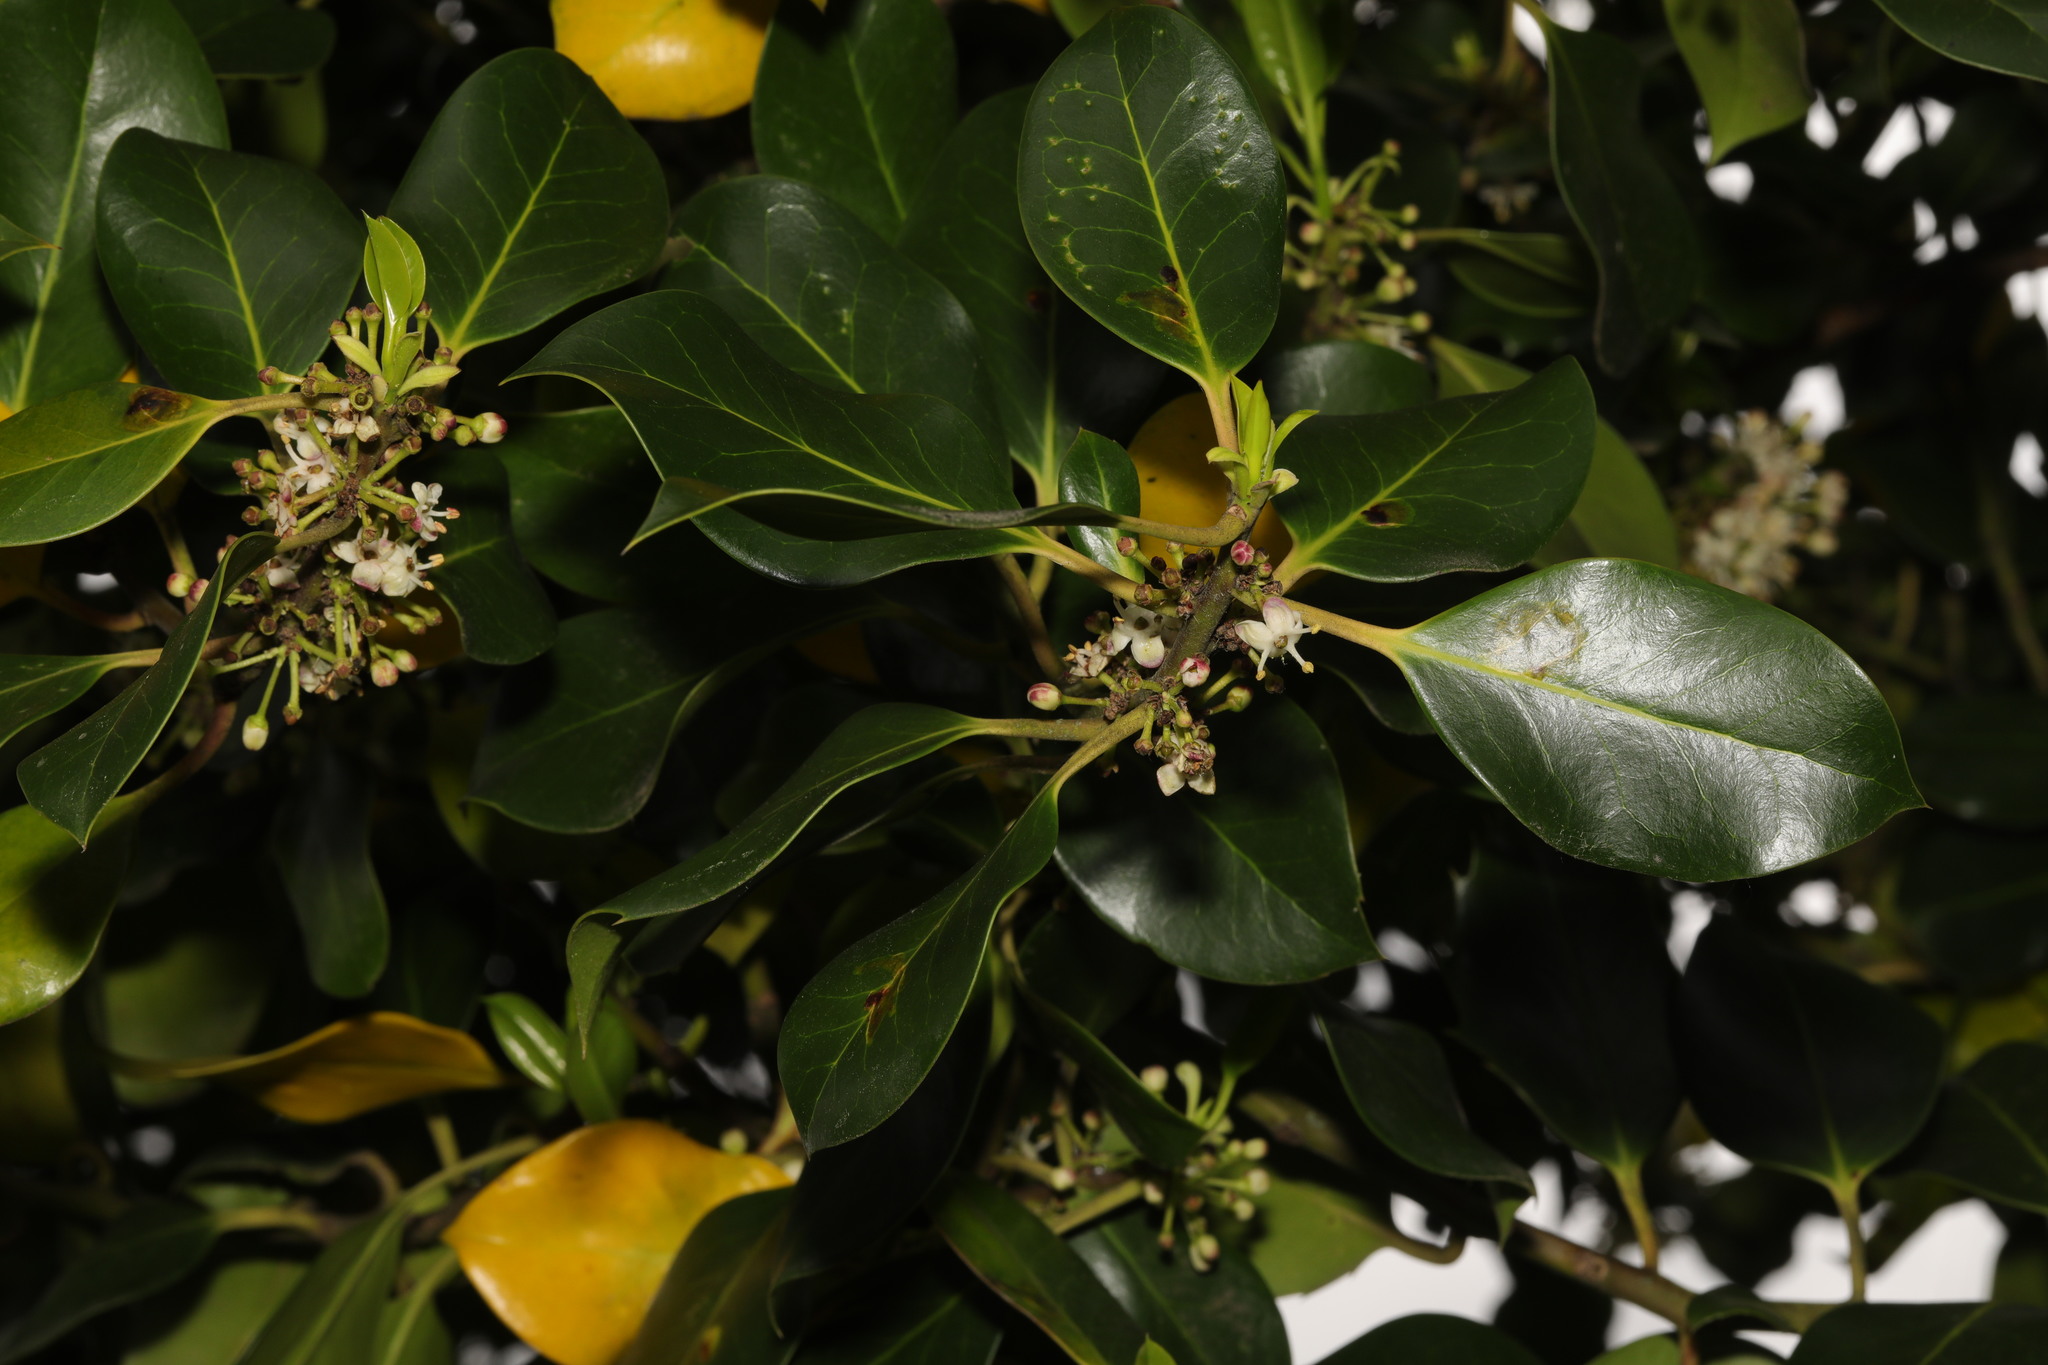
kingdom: Plantae
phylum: Tracheophyta
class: Magnoliopsida
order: Aquifoliales
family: Aquifoliaceae
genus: Ilex
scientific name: Ilex aquifolium
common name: English holly
